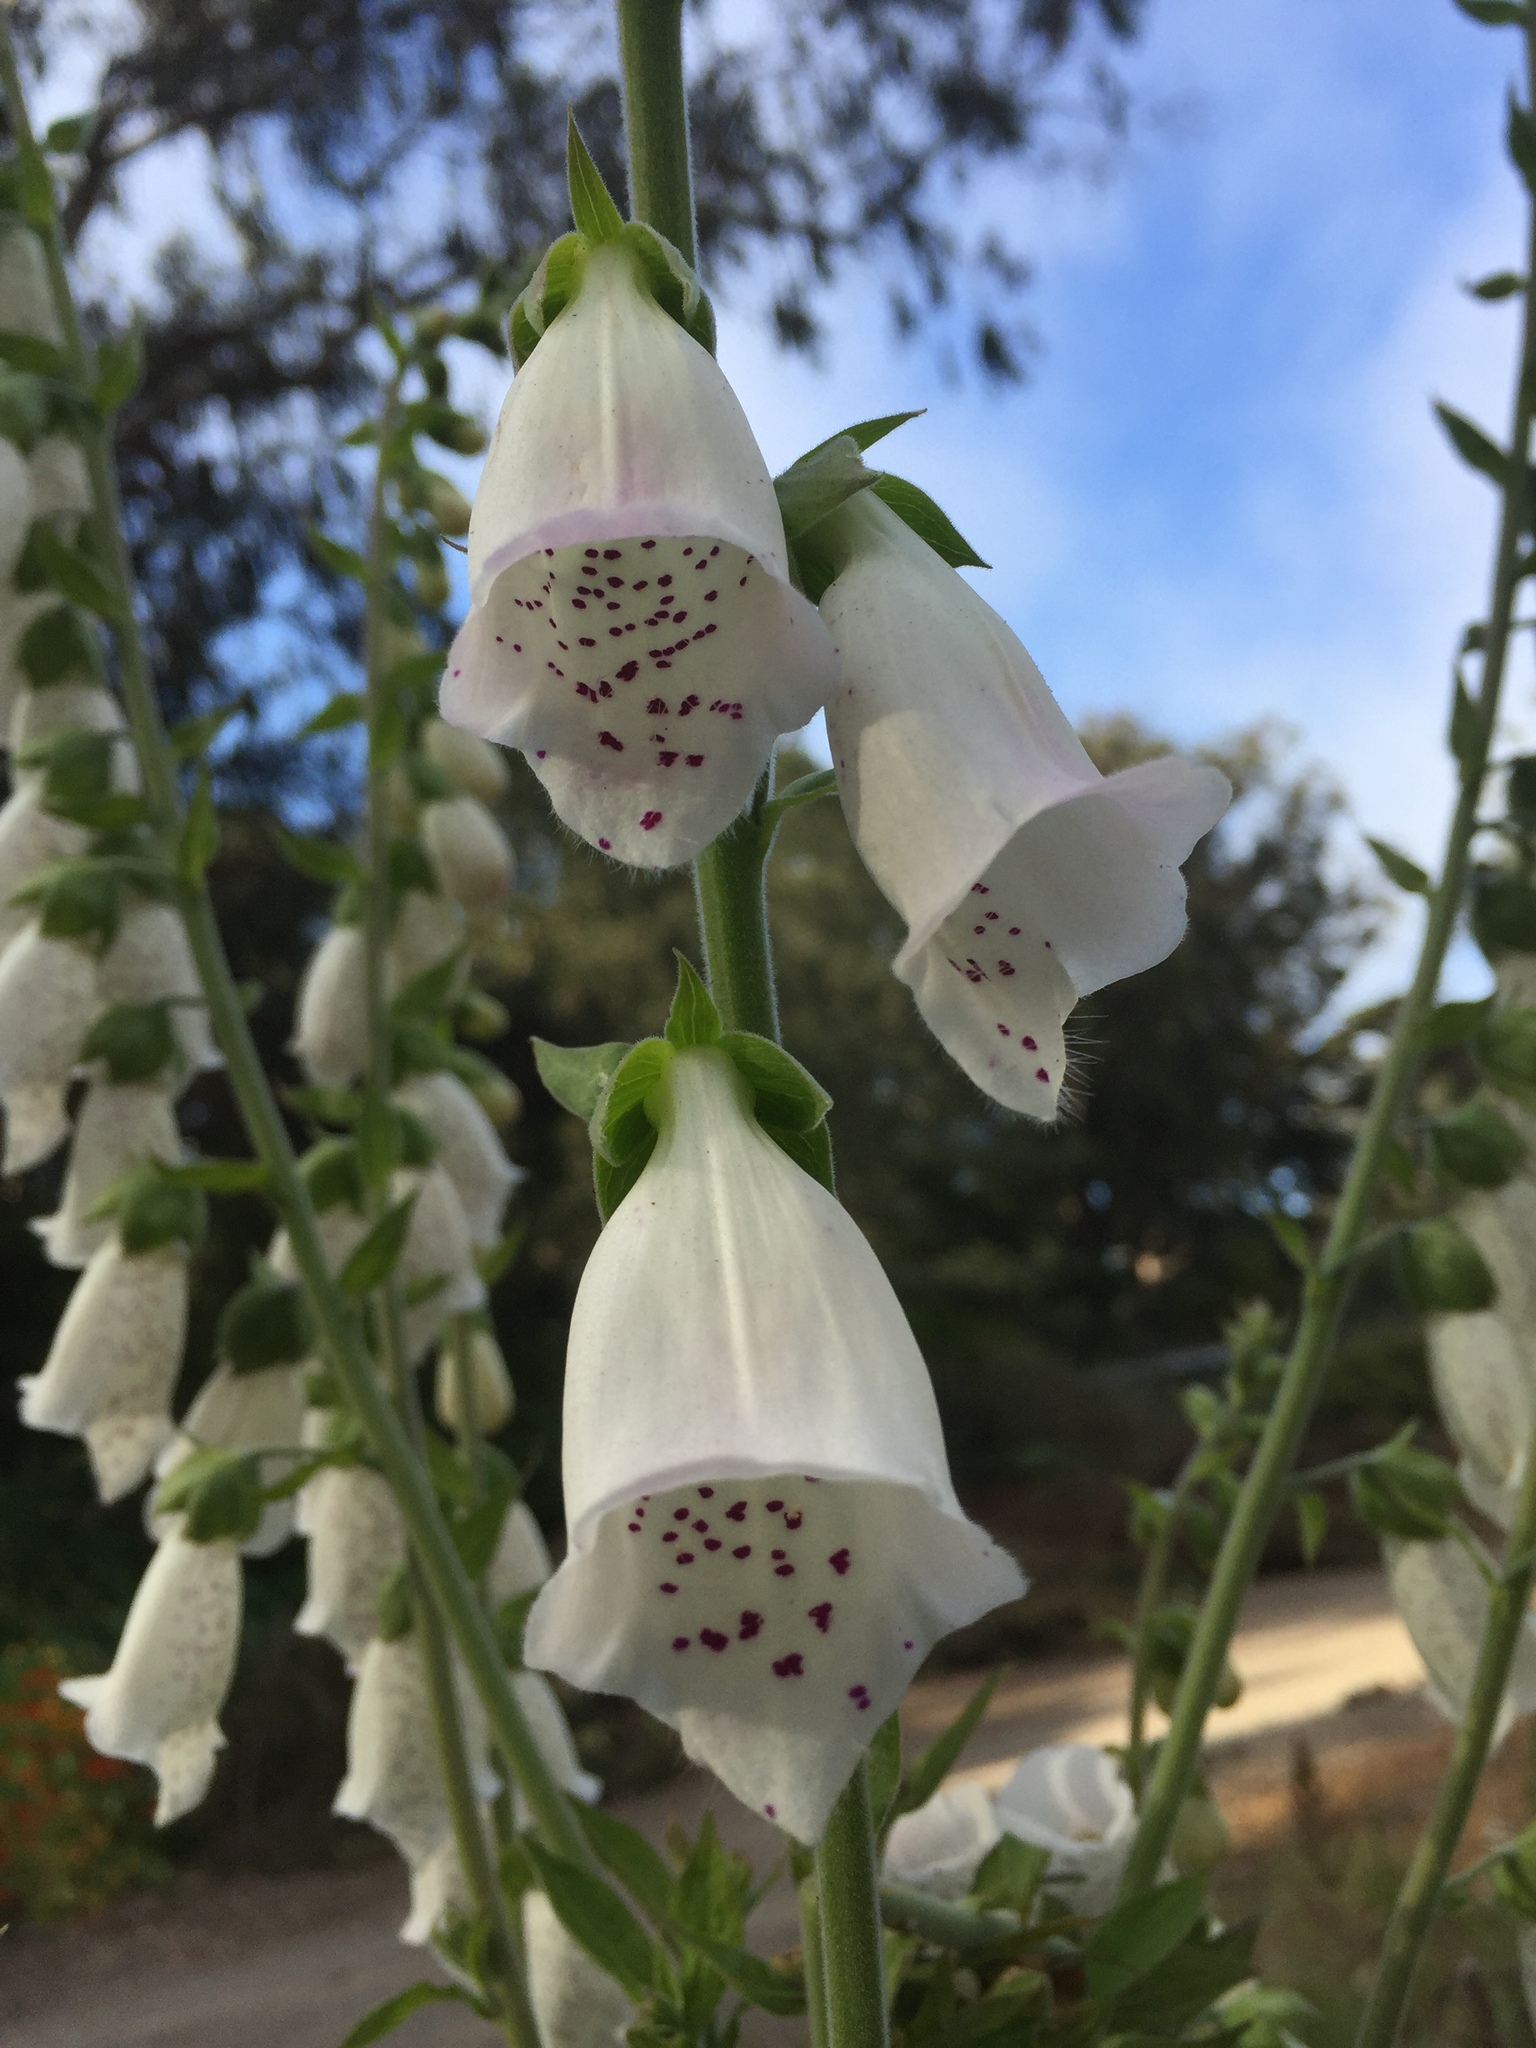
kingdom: Plantae
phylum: Tracheophyta
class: Magnoliopsida
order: Lamiales
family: Plantaginaceae
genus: Digitalis
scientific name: Digitalis purpurea
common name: Foxglove
